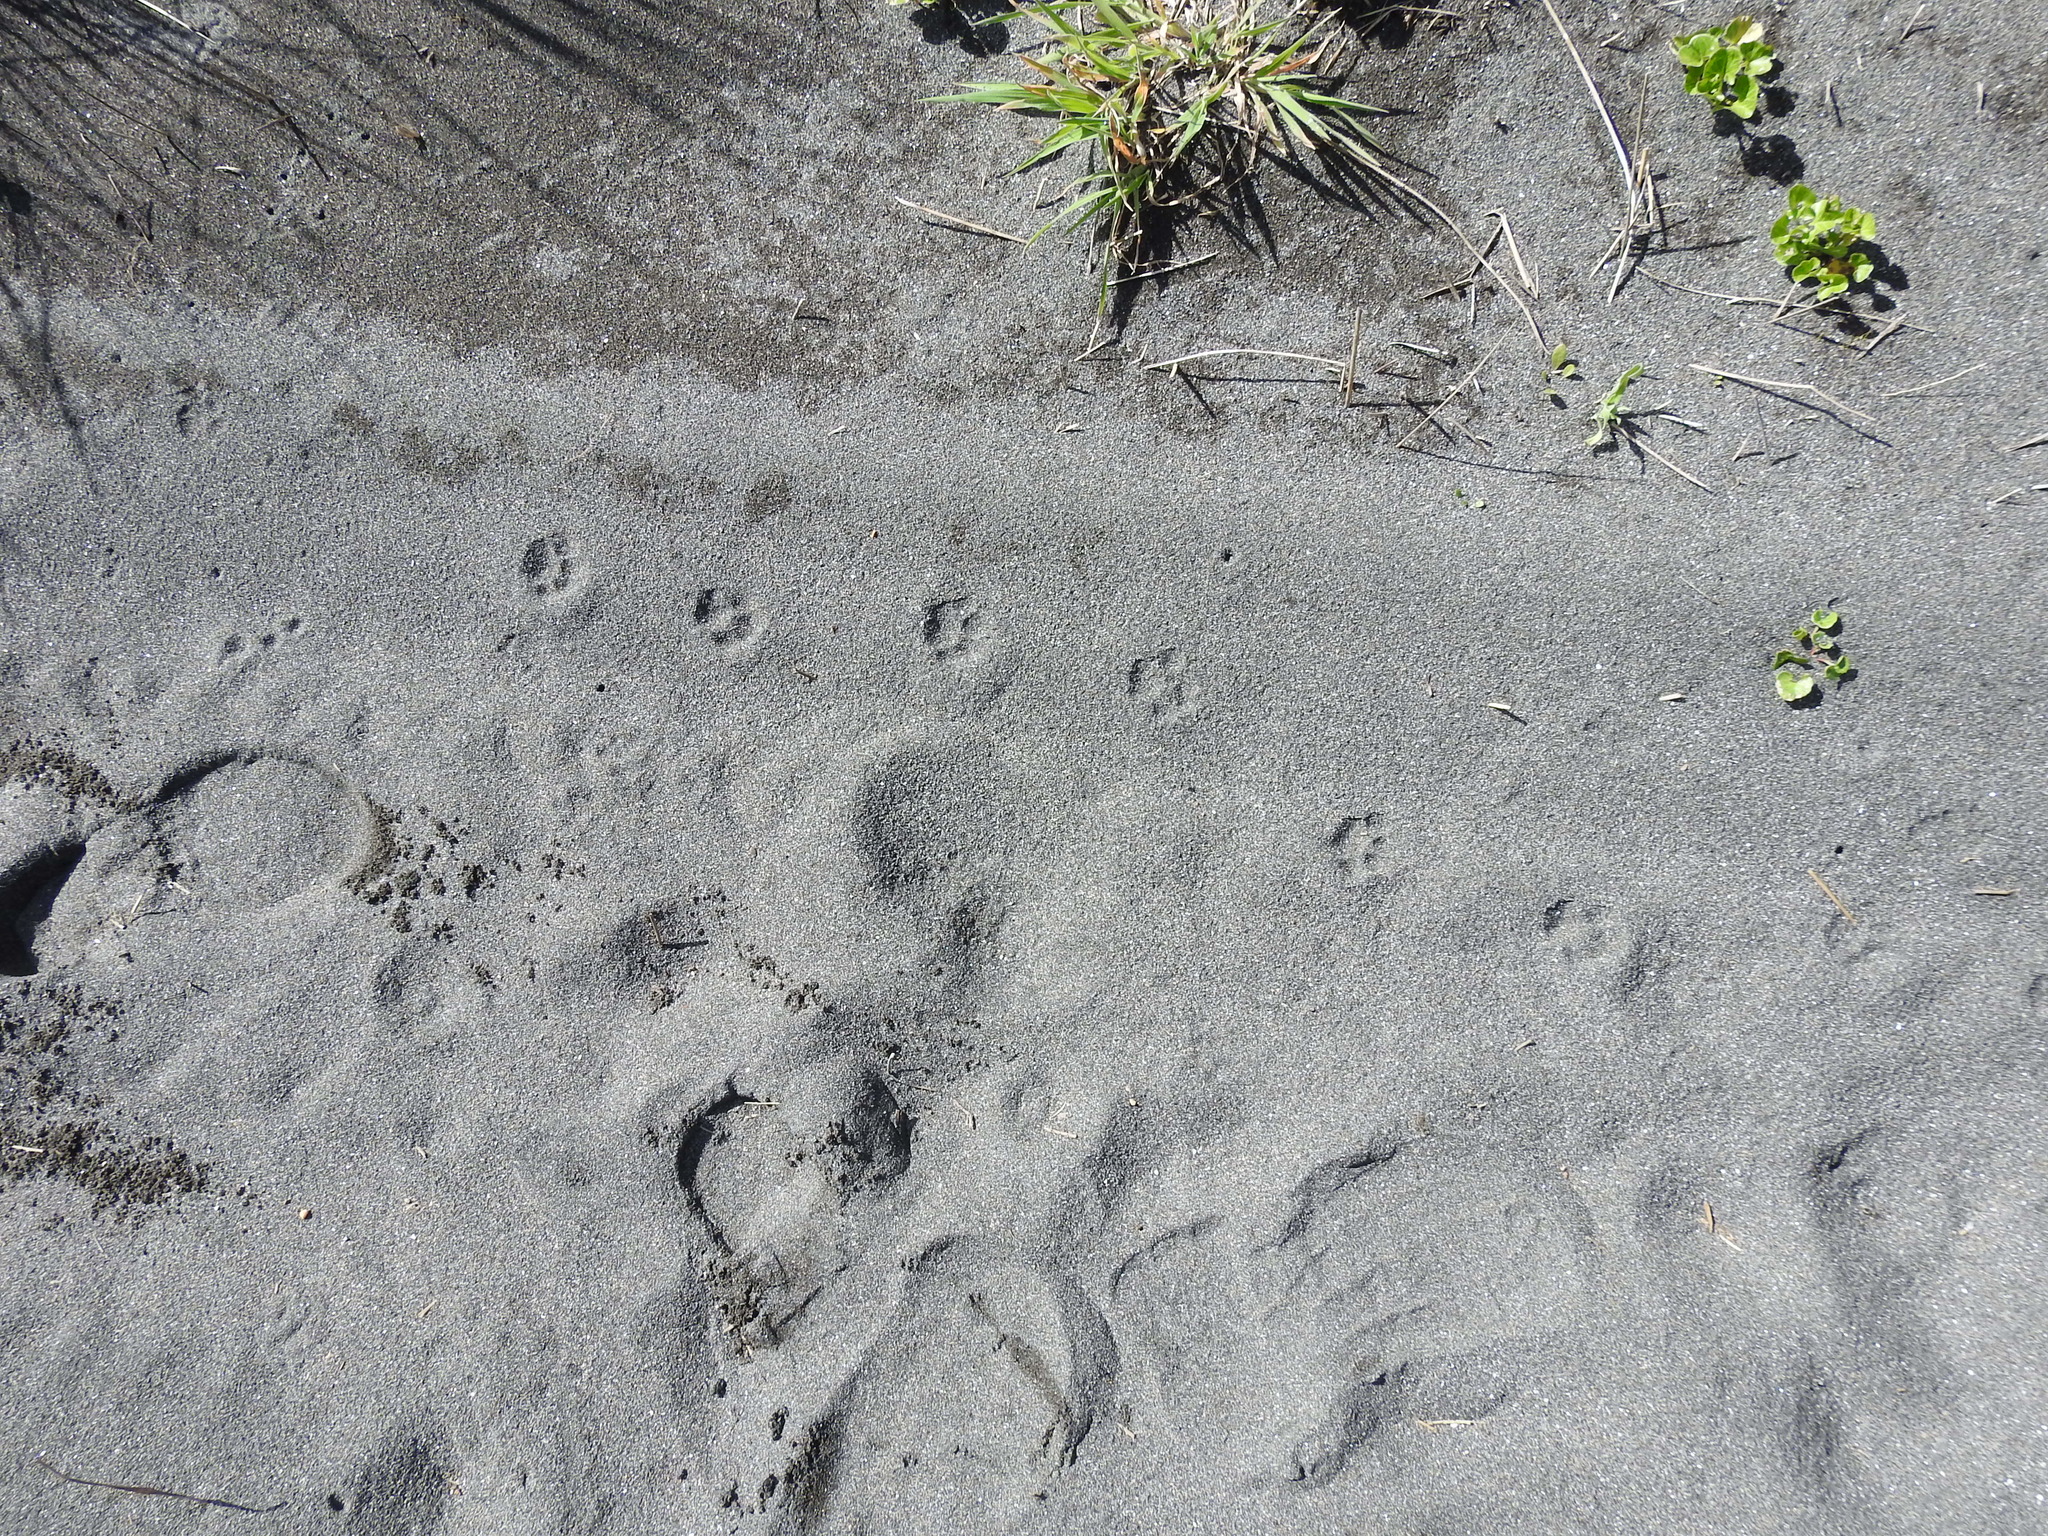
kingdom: Animalia
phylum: Chordata
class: Mammalia
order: Carnivora
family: Felidae
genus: Felis
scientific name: Felis catus
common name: Domestic cat
